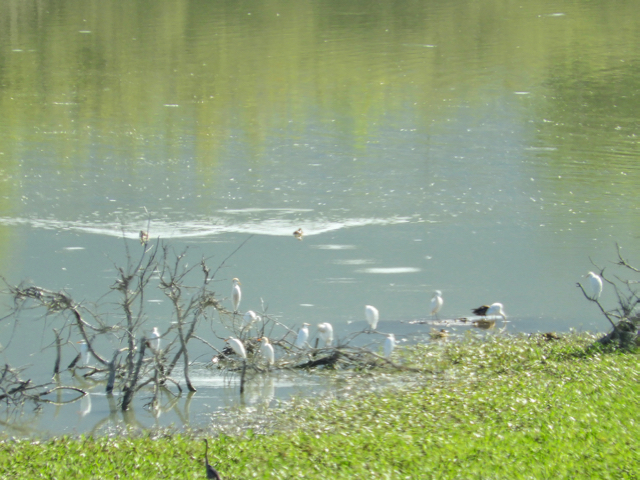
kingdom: Animalia
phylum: Chordata
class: Aves
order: Pelecaniformes
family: Ardeidae
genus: Bubulcus
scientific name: Bubulcus ibis
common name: Cattle egret
